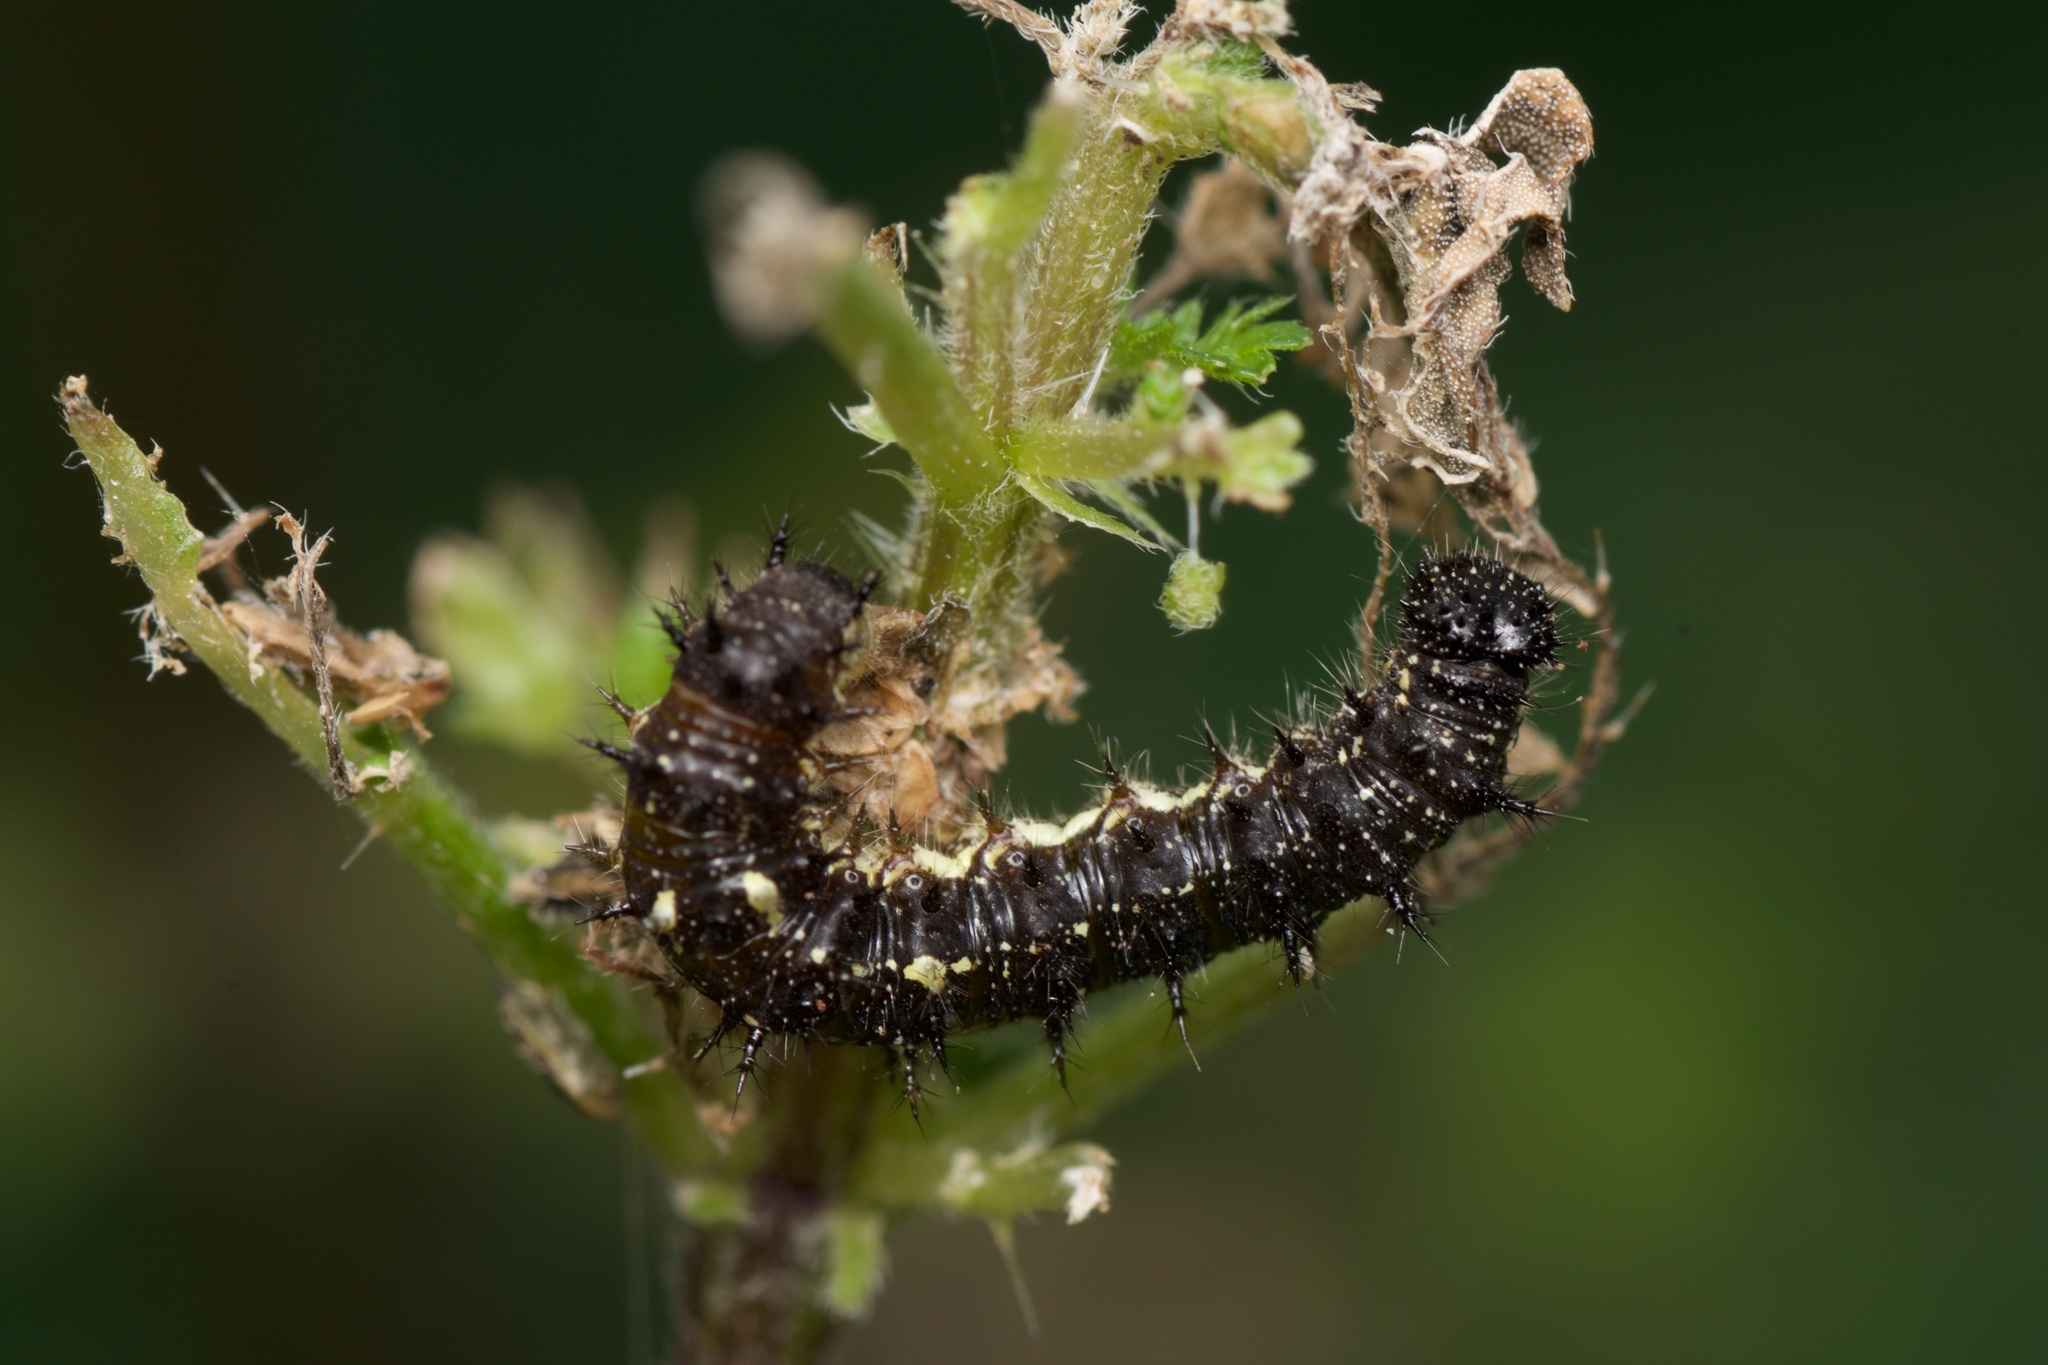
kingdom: Animalia
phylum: Arthropoda
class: Insecta
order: Lepidoptera
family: Nymphalidae
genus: Vanessa
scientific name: Vanessa itea
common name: Yellow admiral
